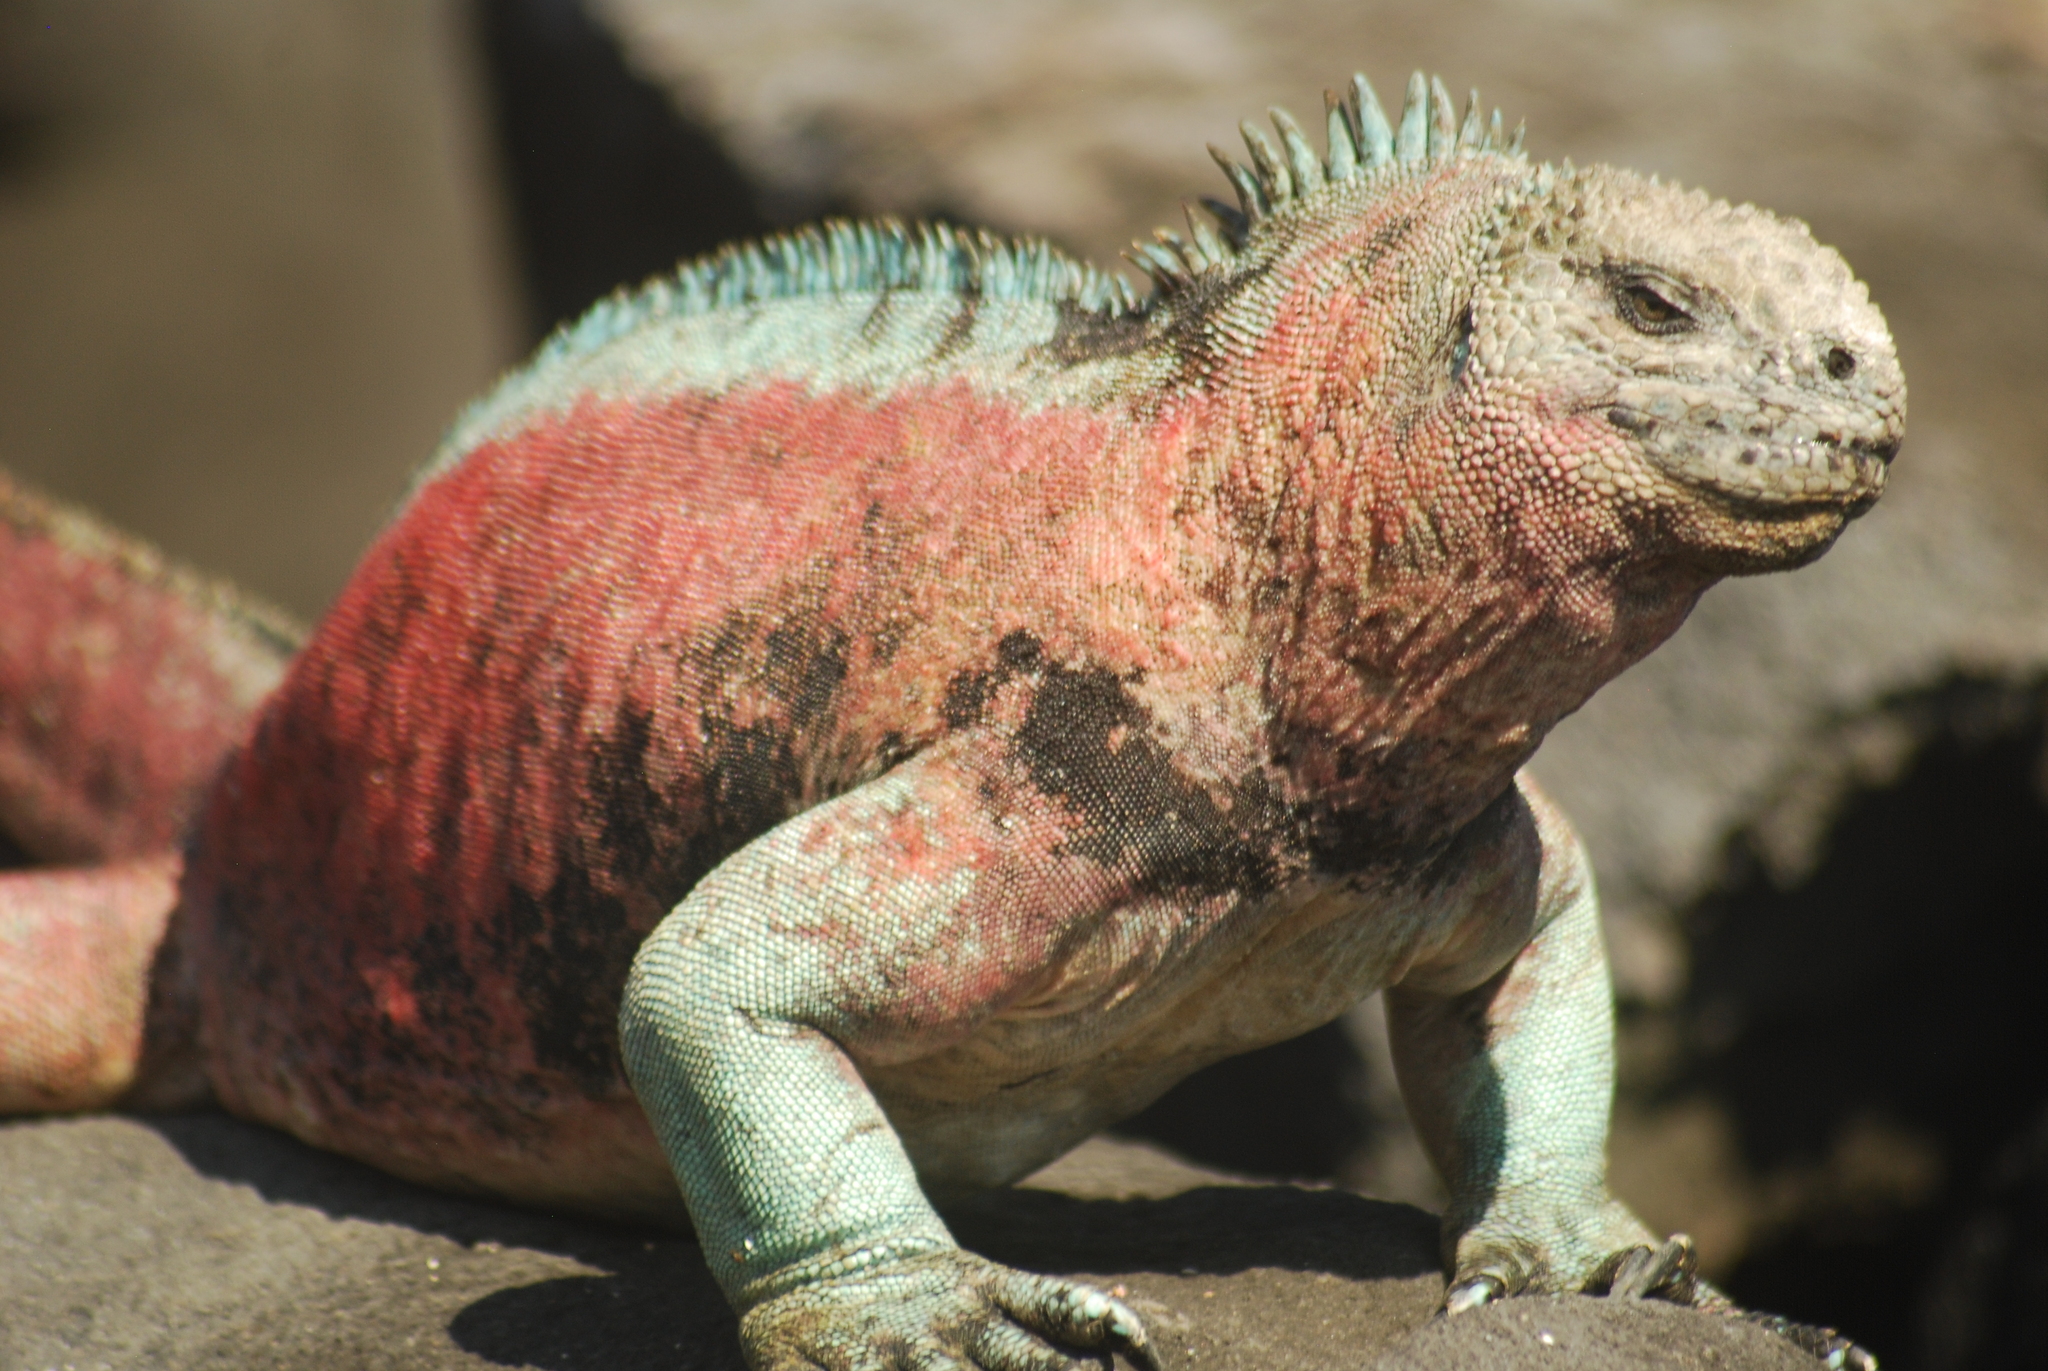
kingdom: Animalia
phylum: Chordata
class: Squamata
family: Iguanidae
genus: Amblyrhynchus
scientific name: Amblyrhynchus cristatus
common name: Marine iguana
